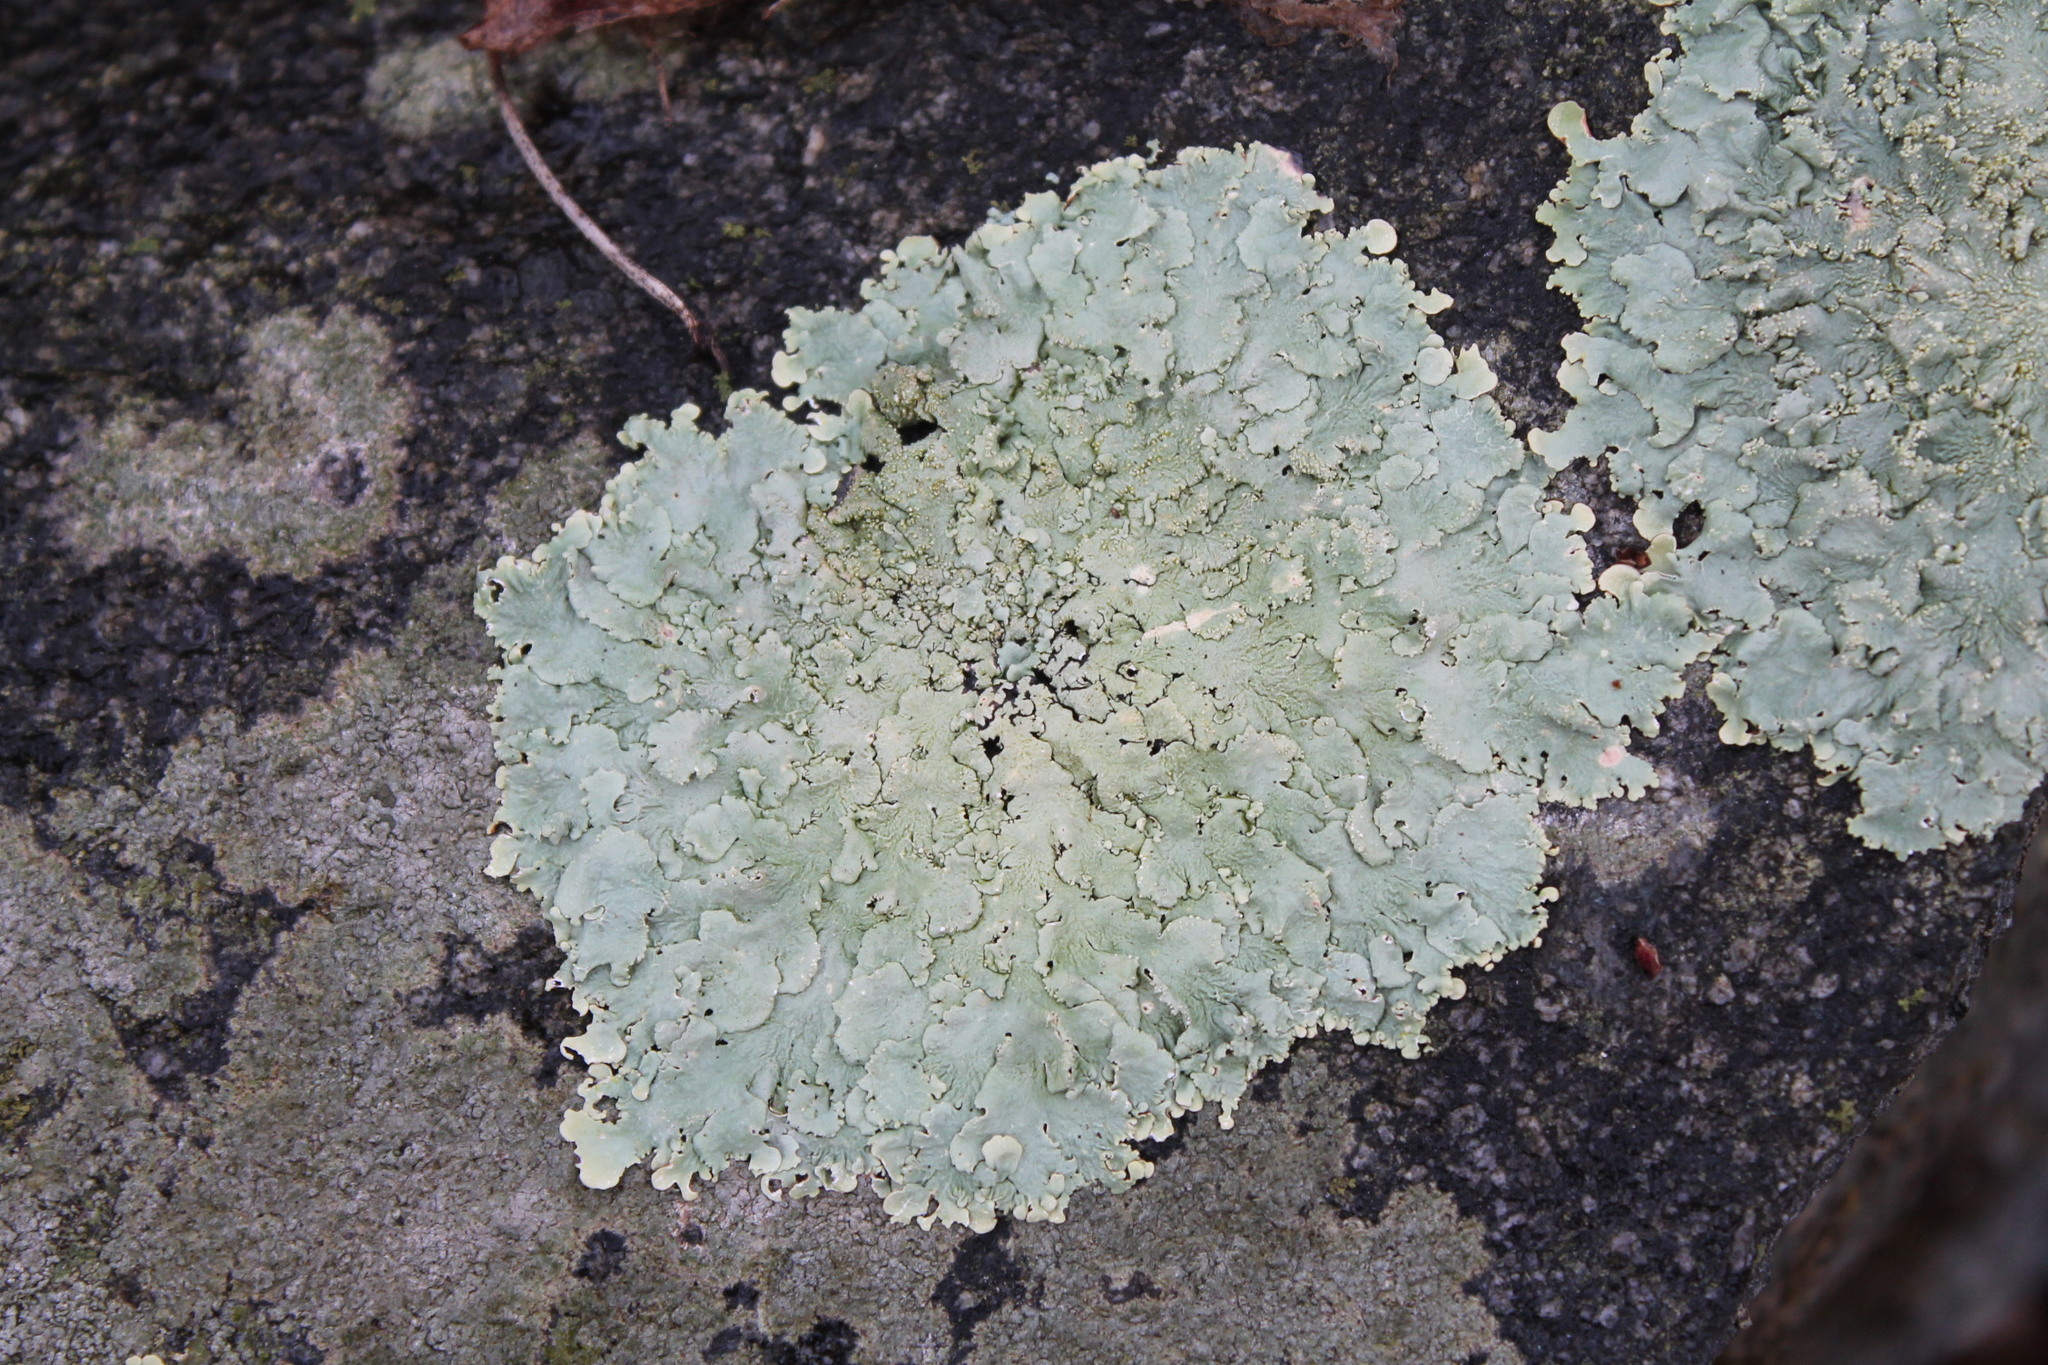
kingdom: Fungi
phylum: Ascomycota
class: Lecanoromycetes
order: Lecanorales
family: Parmeliaceae
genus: Flavoparmelia
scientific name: Flavoparmelia baltimorensis
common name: Rock greenshield
